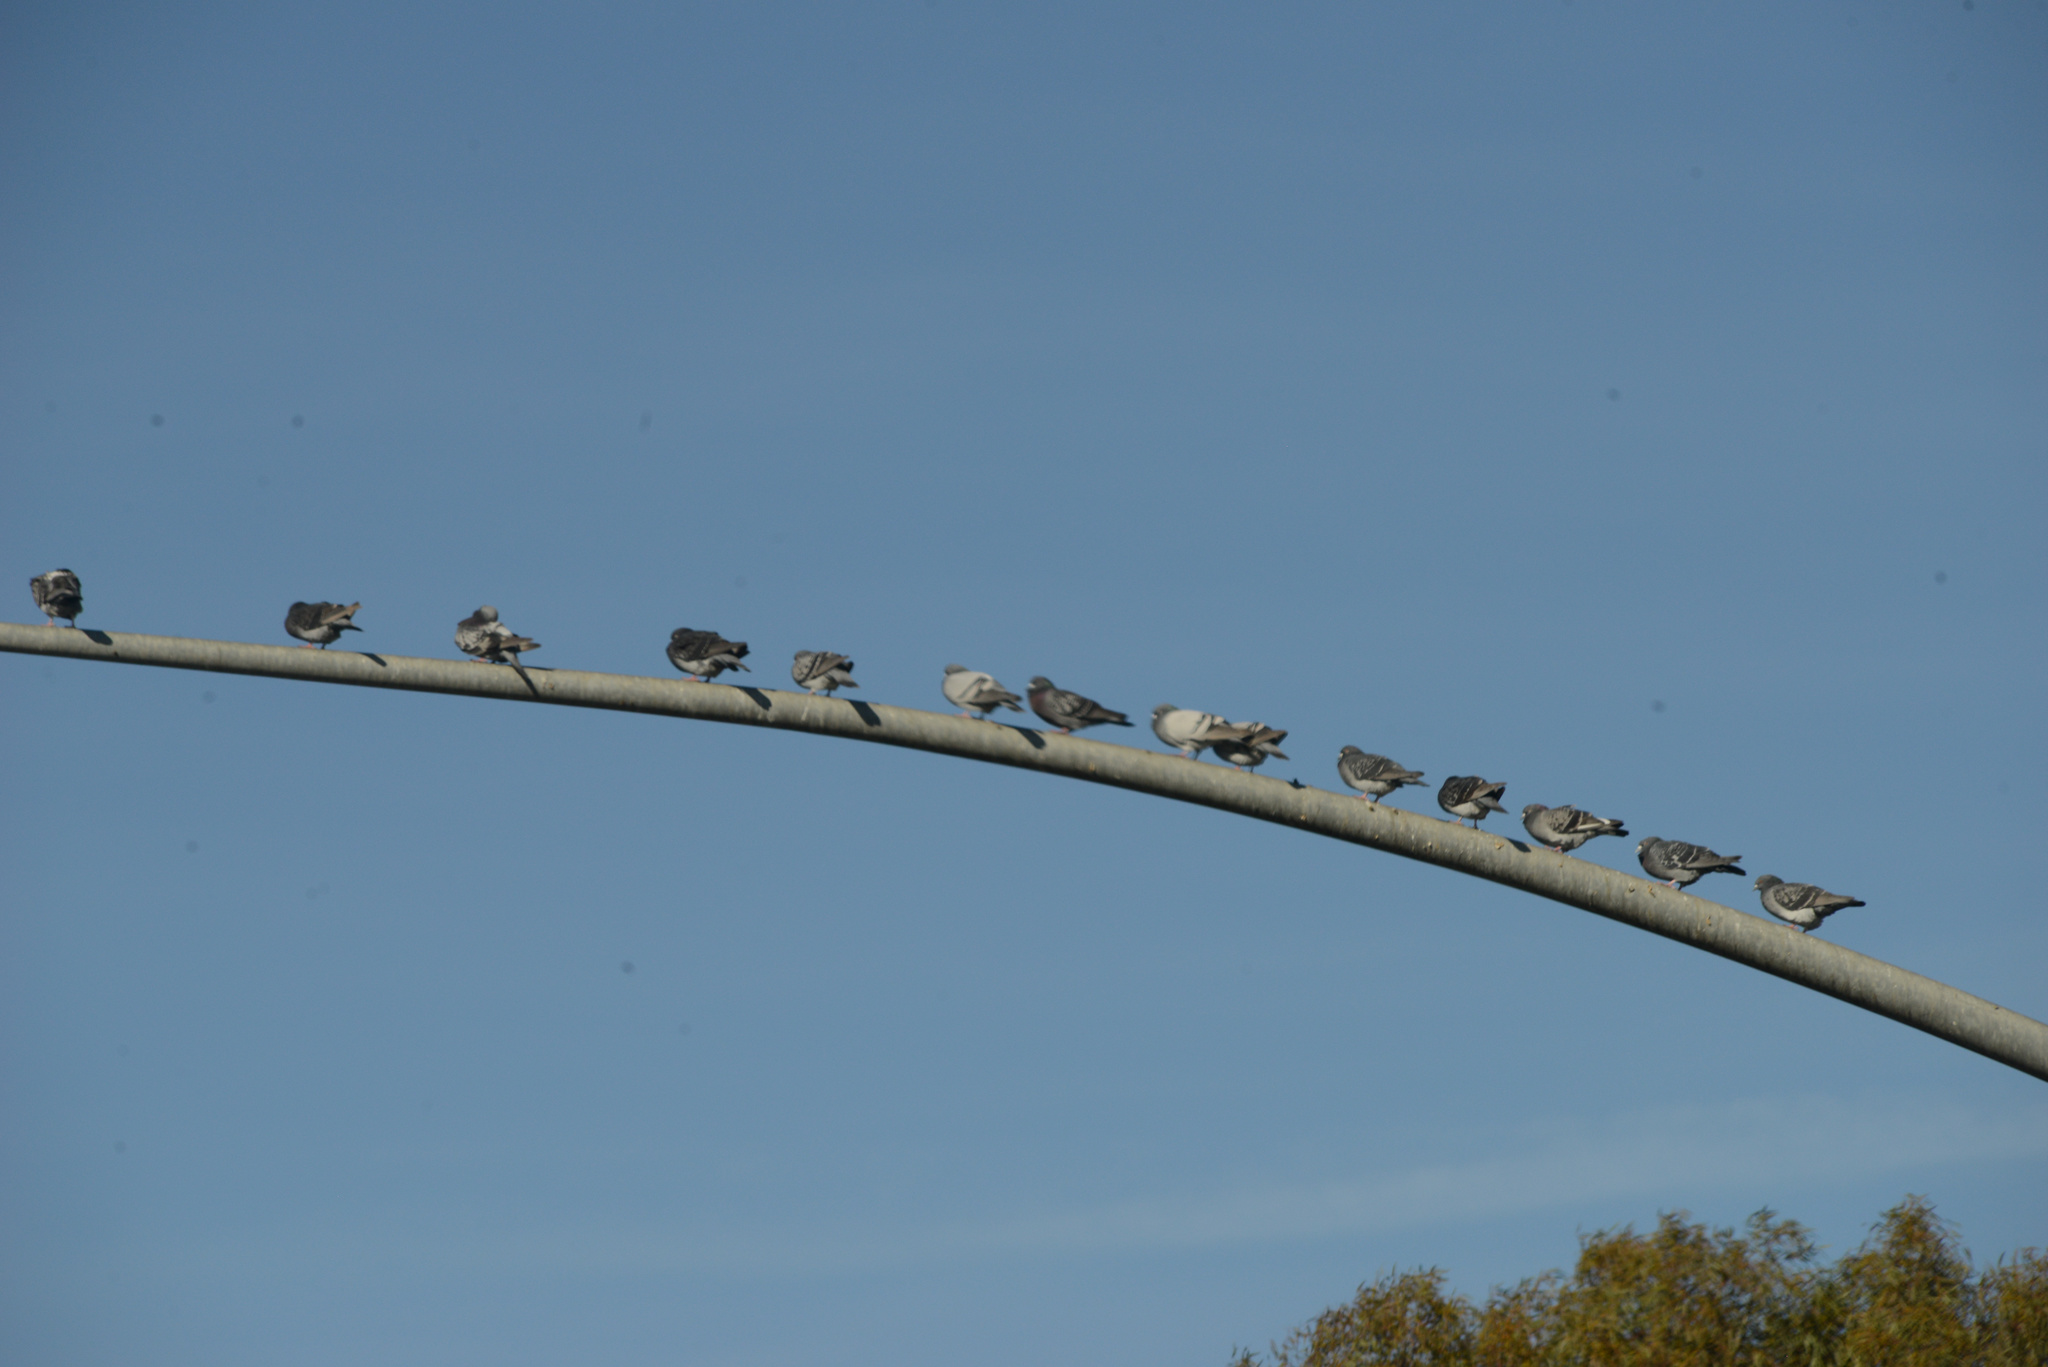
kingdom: Animalia
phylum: Chordata
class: Aves
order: Columbiformes
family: Columbidae
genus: Columba
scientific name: Columba livia
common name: Rock pigeon
